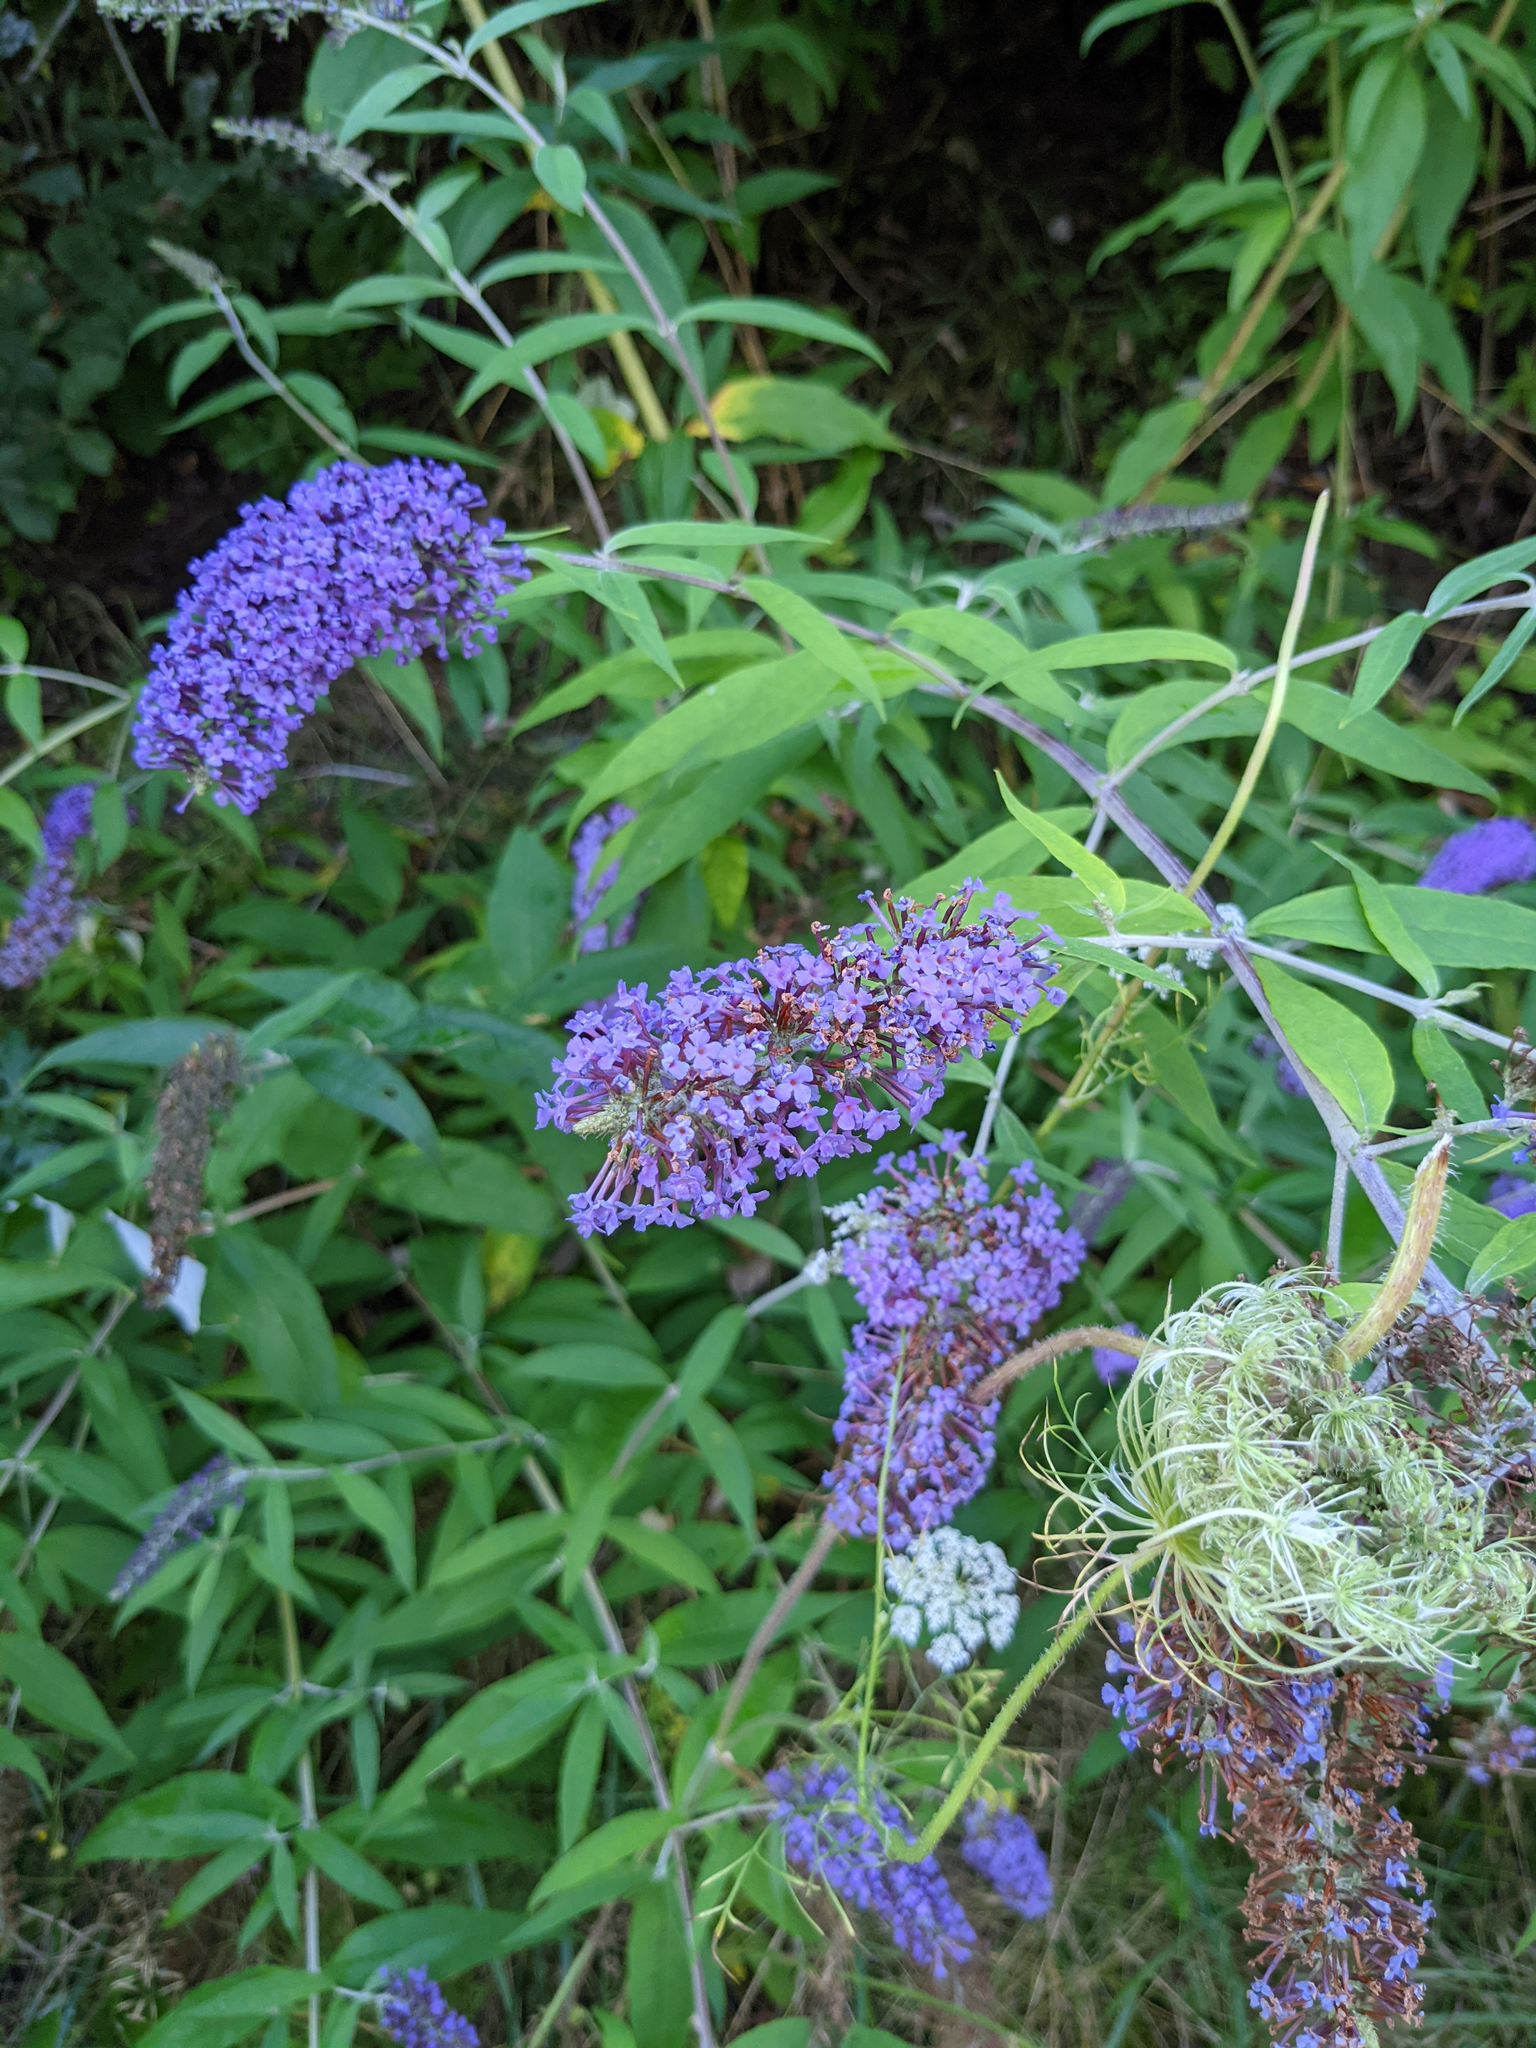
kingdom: Plantae
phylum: Tracheophyta
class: Magnoliopsida
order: Lamiales
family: Scrophulariaceae
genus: Buddleja
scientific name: Buddleja davidii
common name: Butterfly-bush
